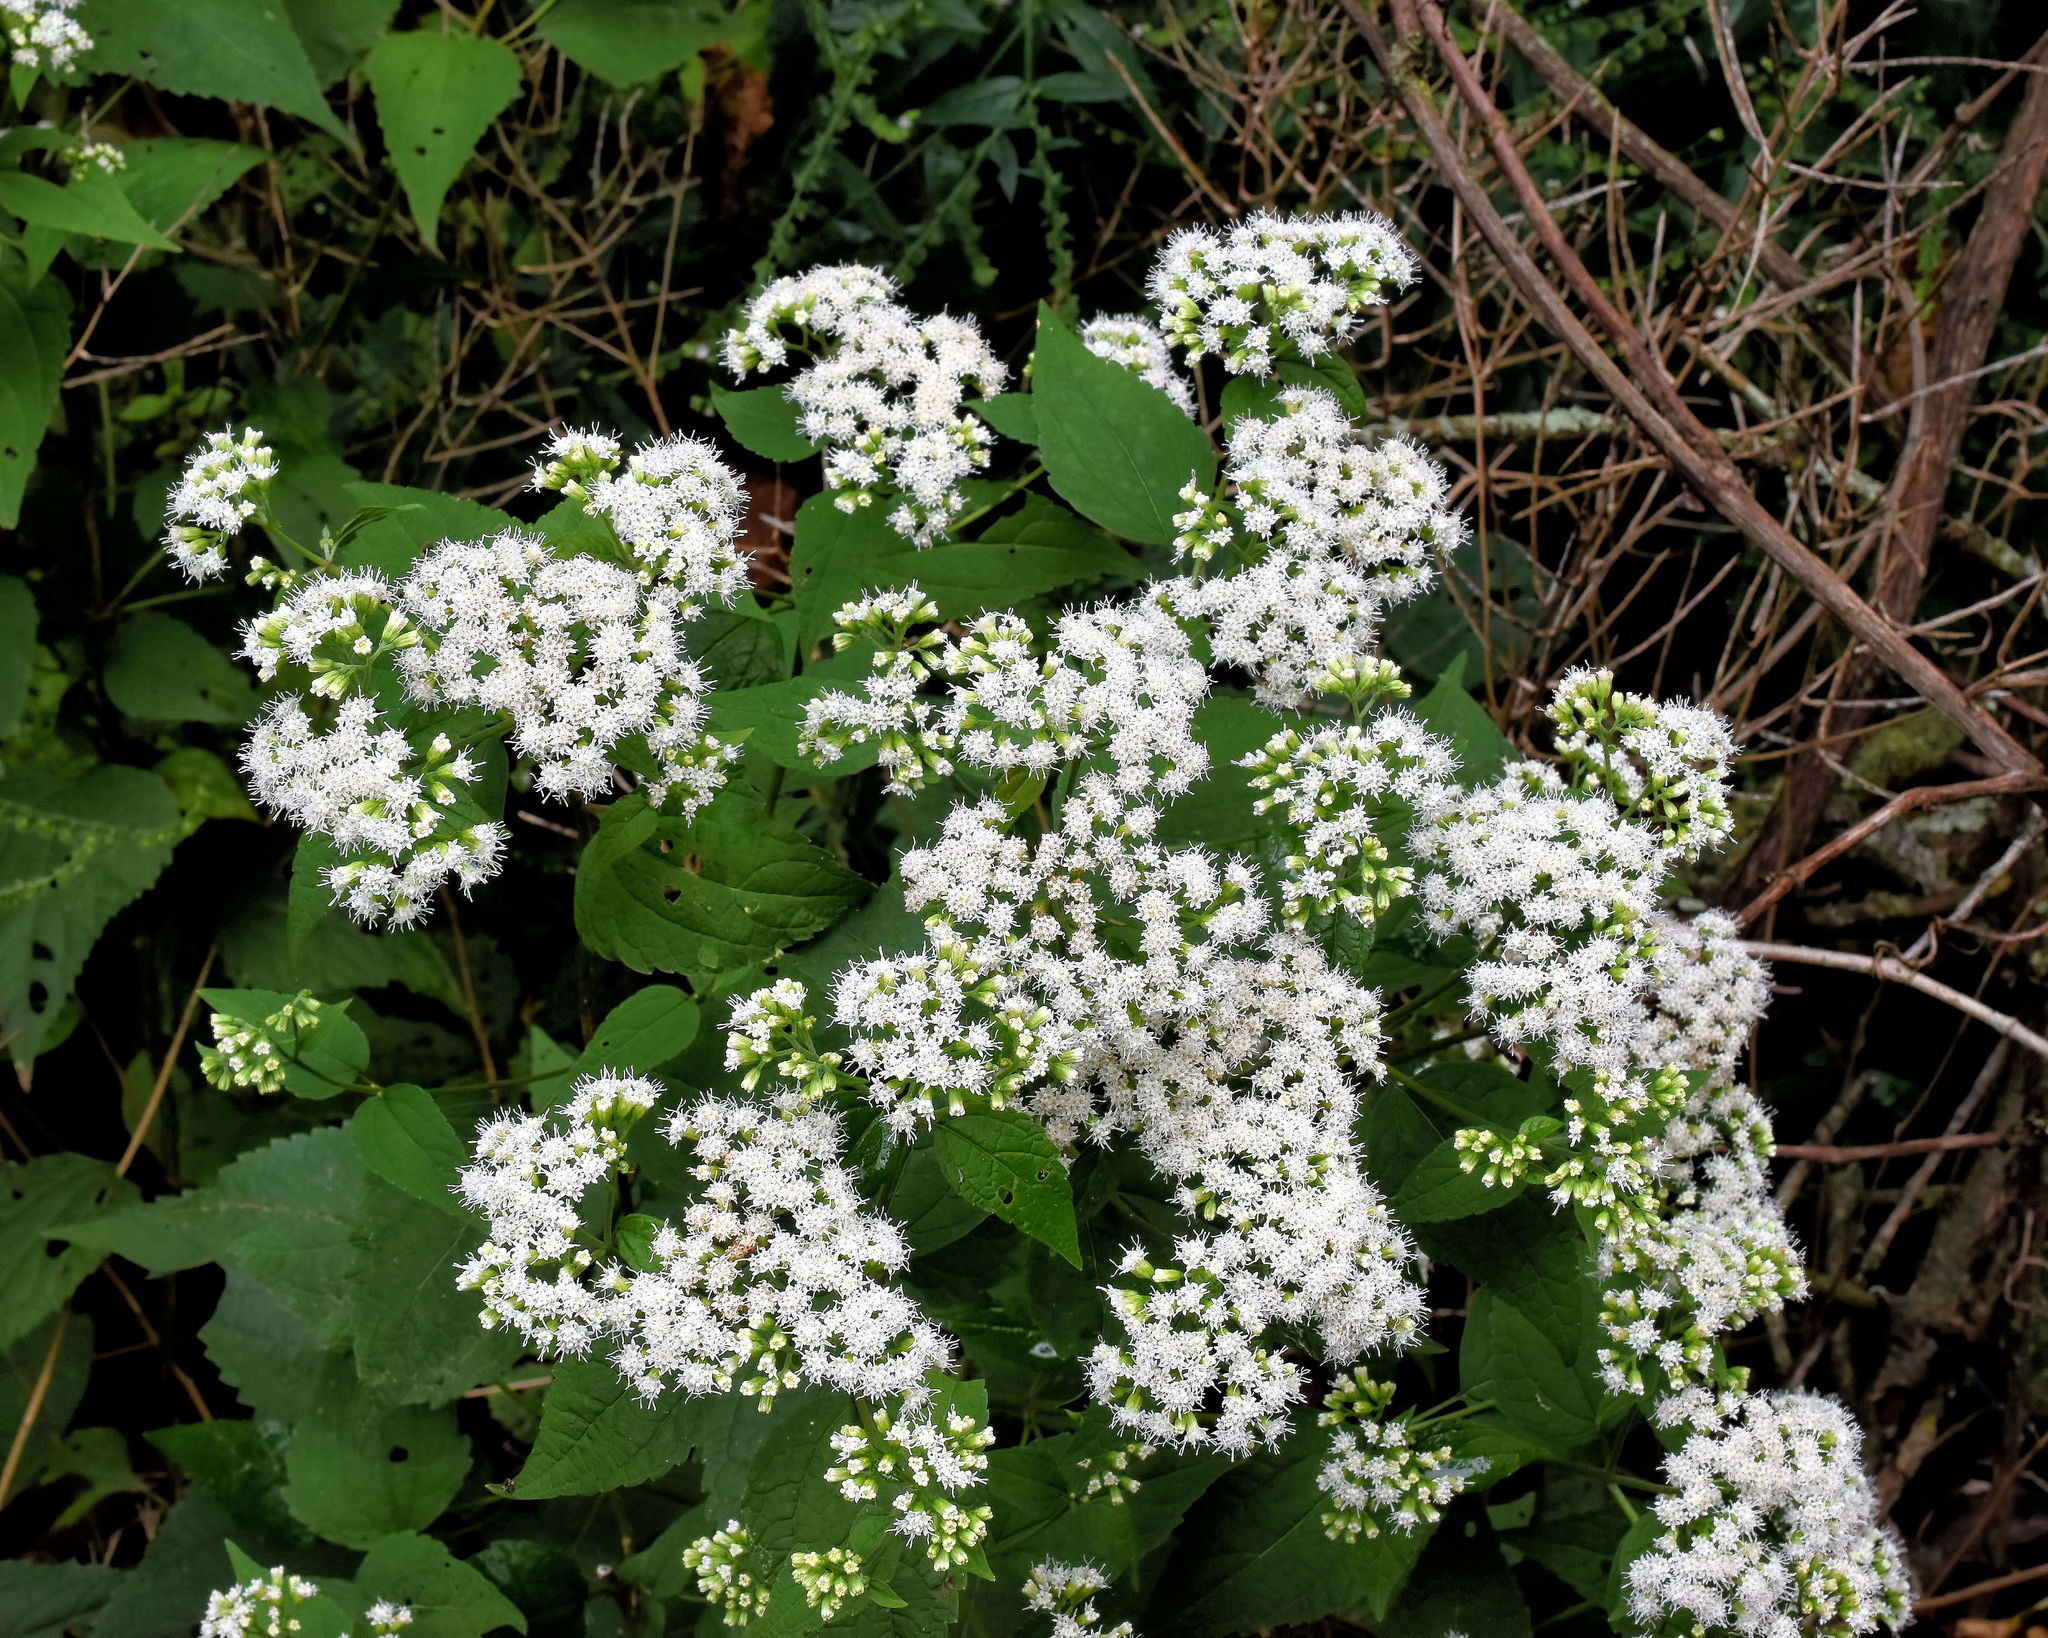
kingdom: Plantae
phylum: Tracheophyta
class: Magnoliopsida
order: Asterales
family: Asteraceae
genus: Ageratina
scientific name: Ageratina altissima
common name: White snakeroot
